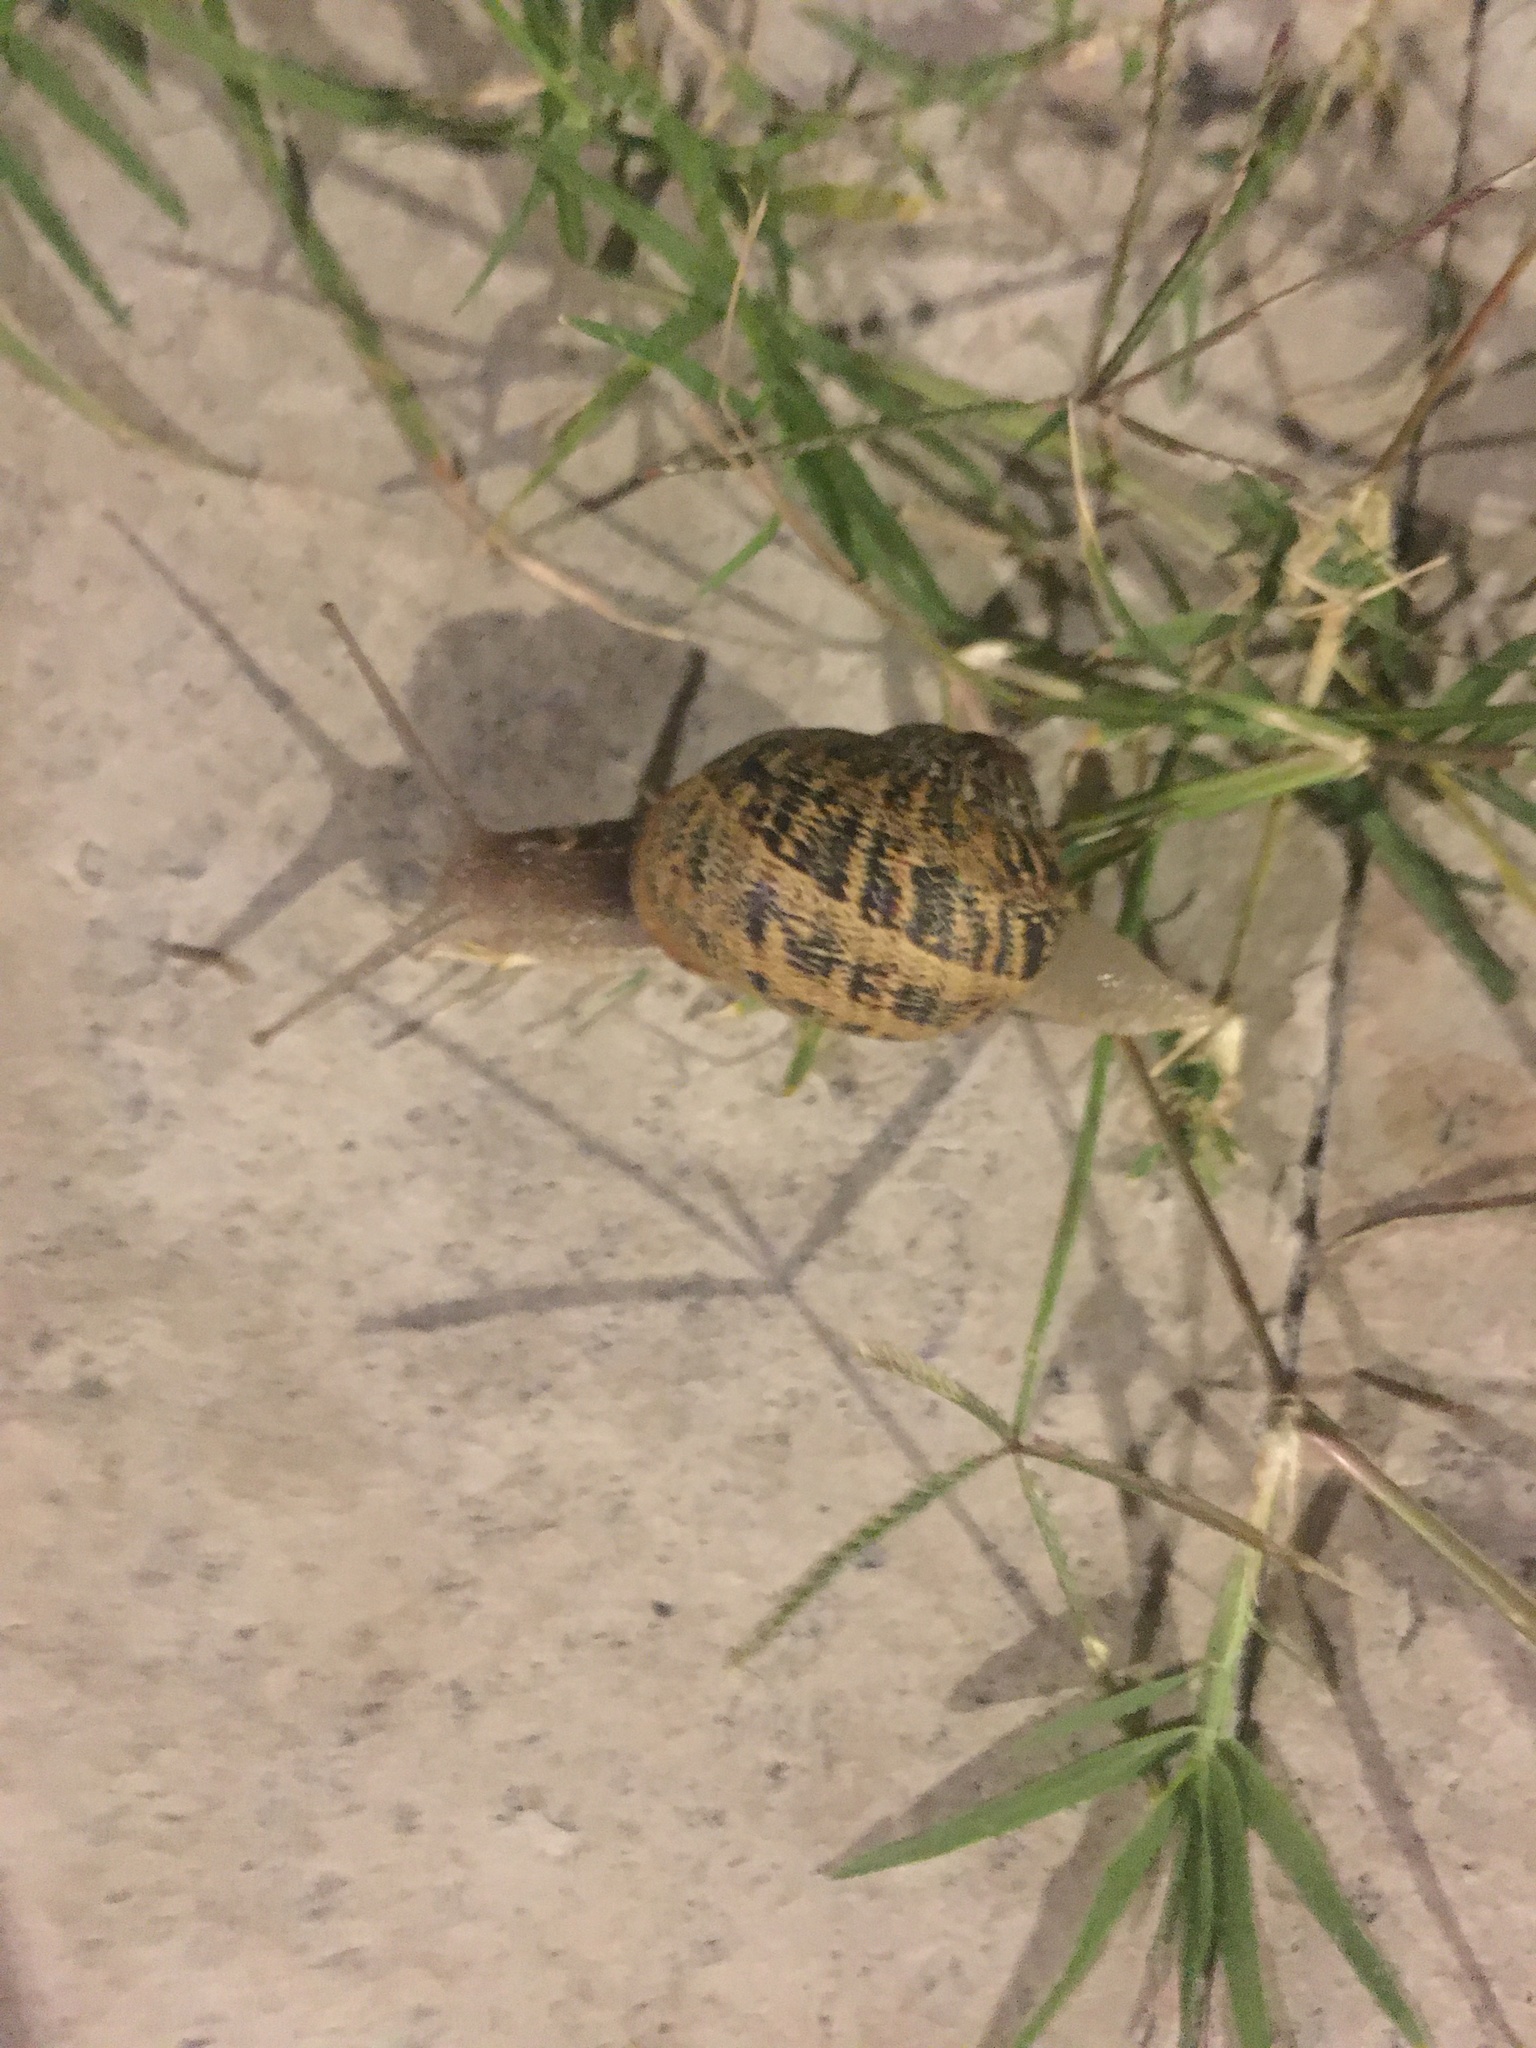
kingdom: Animalia
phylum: Mollusca
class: Gastropoda
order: Stylommatophora
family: Helicidae
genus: Cornu
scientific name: Cornu aspersum
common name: Brown garden snail
